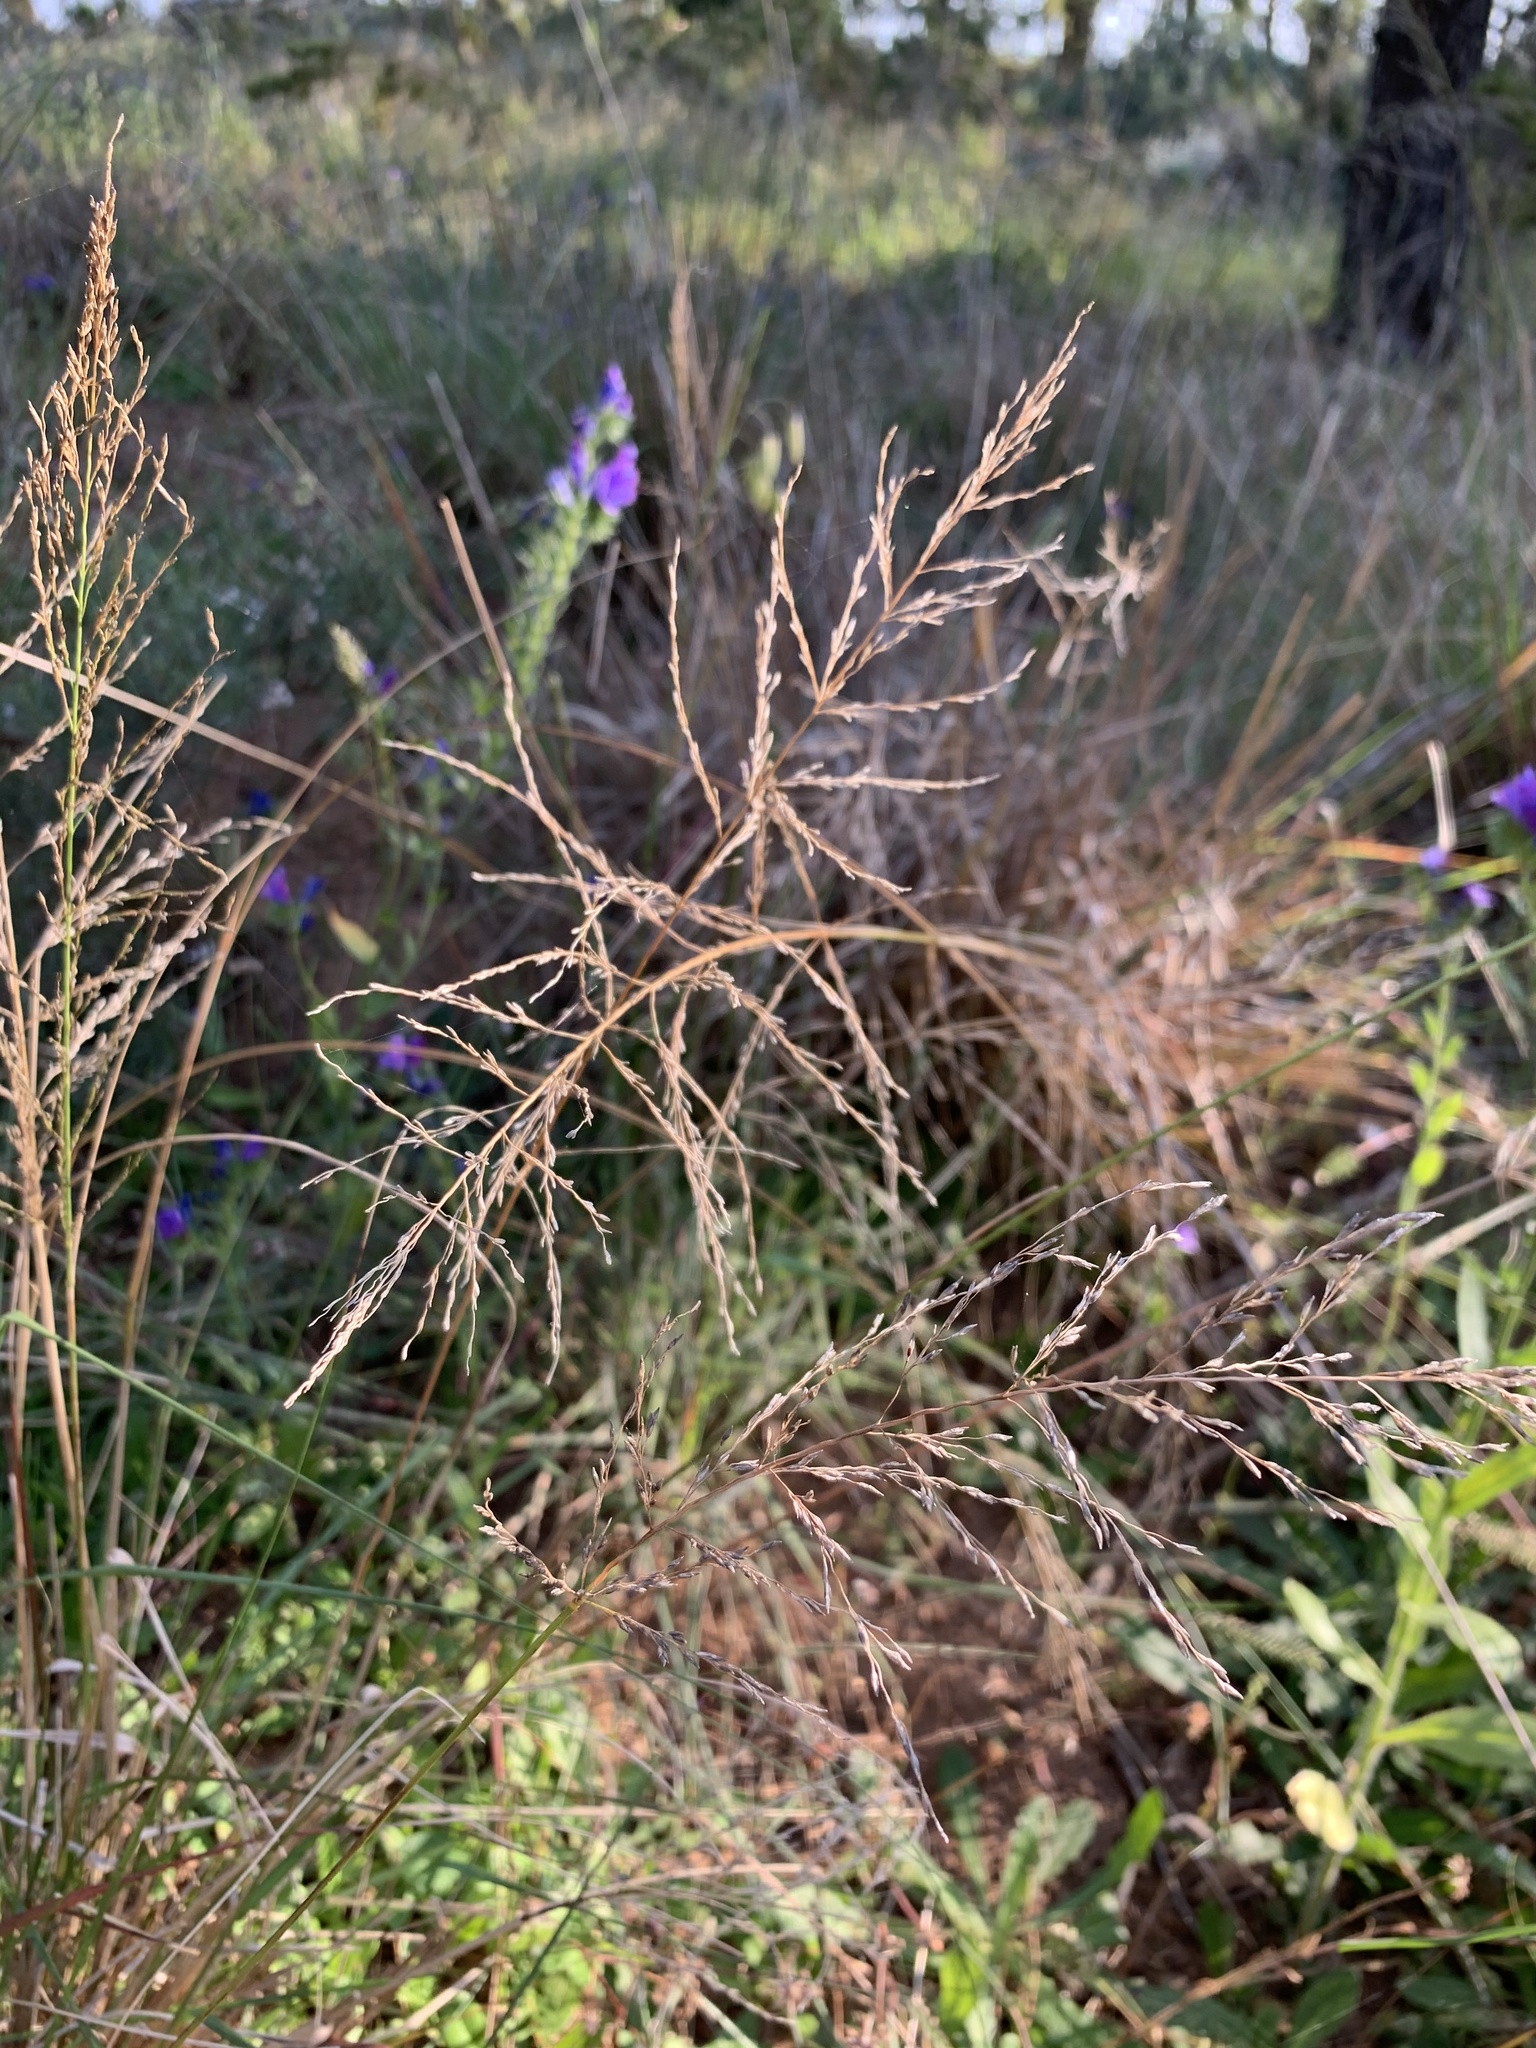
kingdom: Plantae
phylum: Tracheophyta
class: Liliopsida
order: Poales
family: Poaceae
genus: Eragrostis
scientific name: Eragrostis curvula
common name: African love-grass
